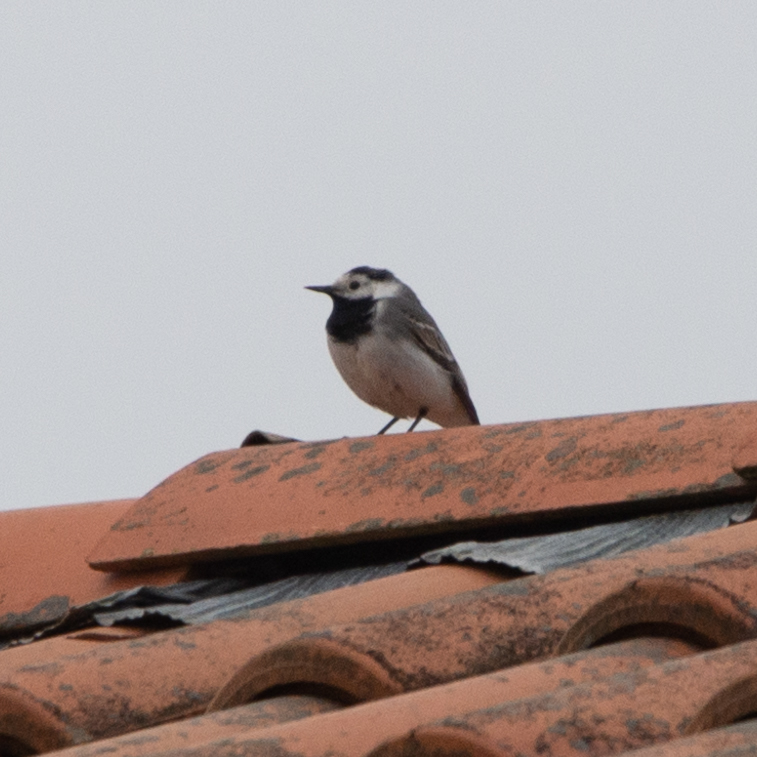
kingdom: Animalia
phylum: Chordata
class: Aves
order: Passeriformes
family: Motacillidae
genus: Motacilla
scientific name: Motacilla alba
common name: White wagtail
